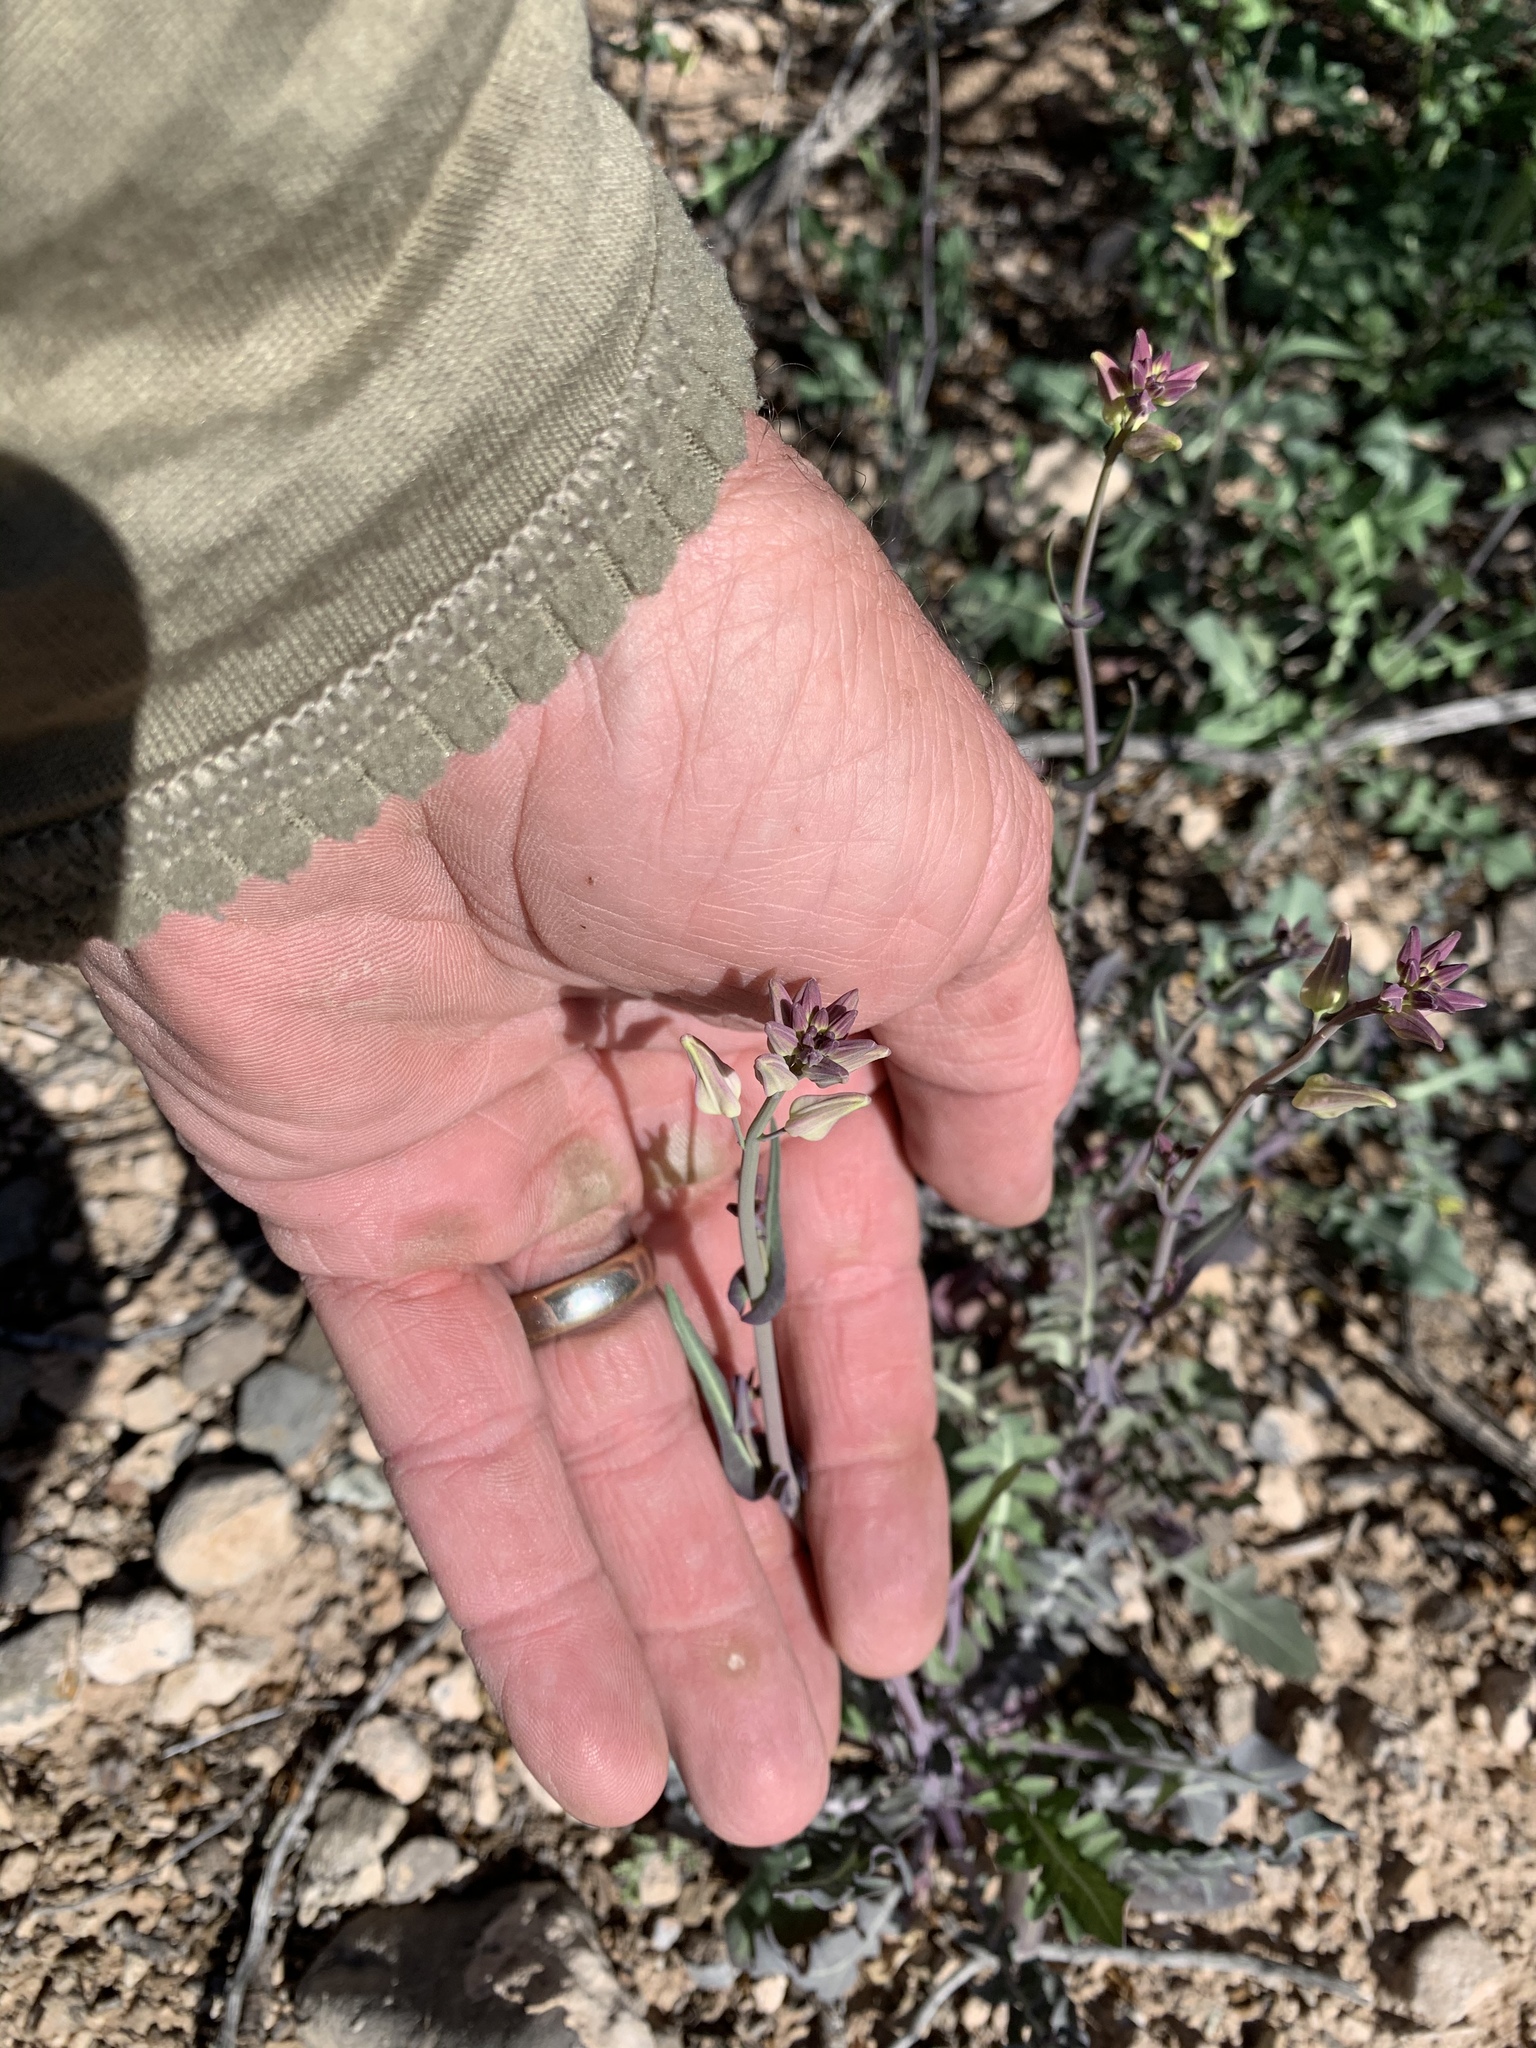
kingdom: Plantae
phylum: Tracheophyta
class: Magnoliopsida
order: Brassicales
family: Brassicaceae
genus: Streptanthus
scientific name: Streptanthus carinatus
